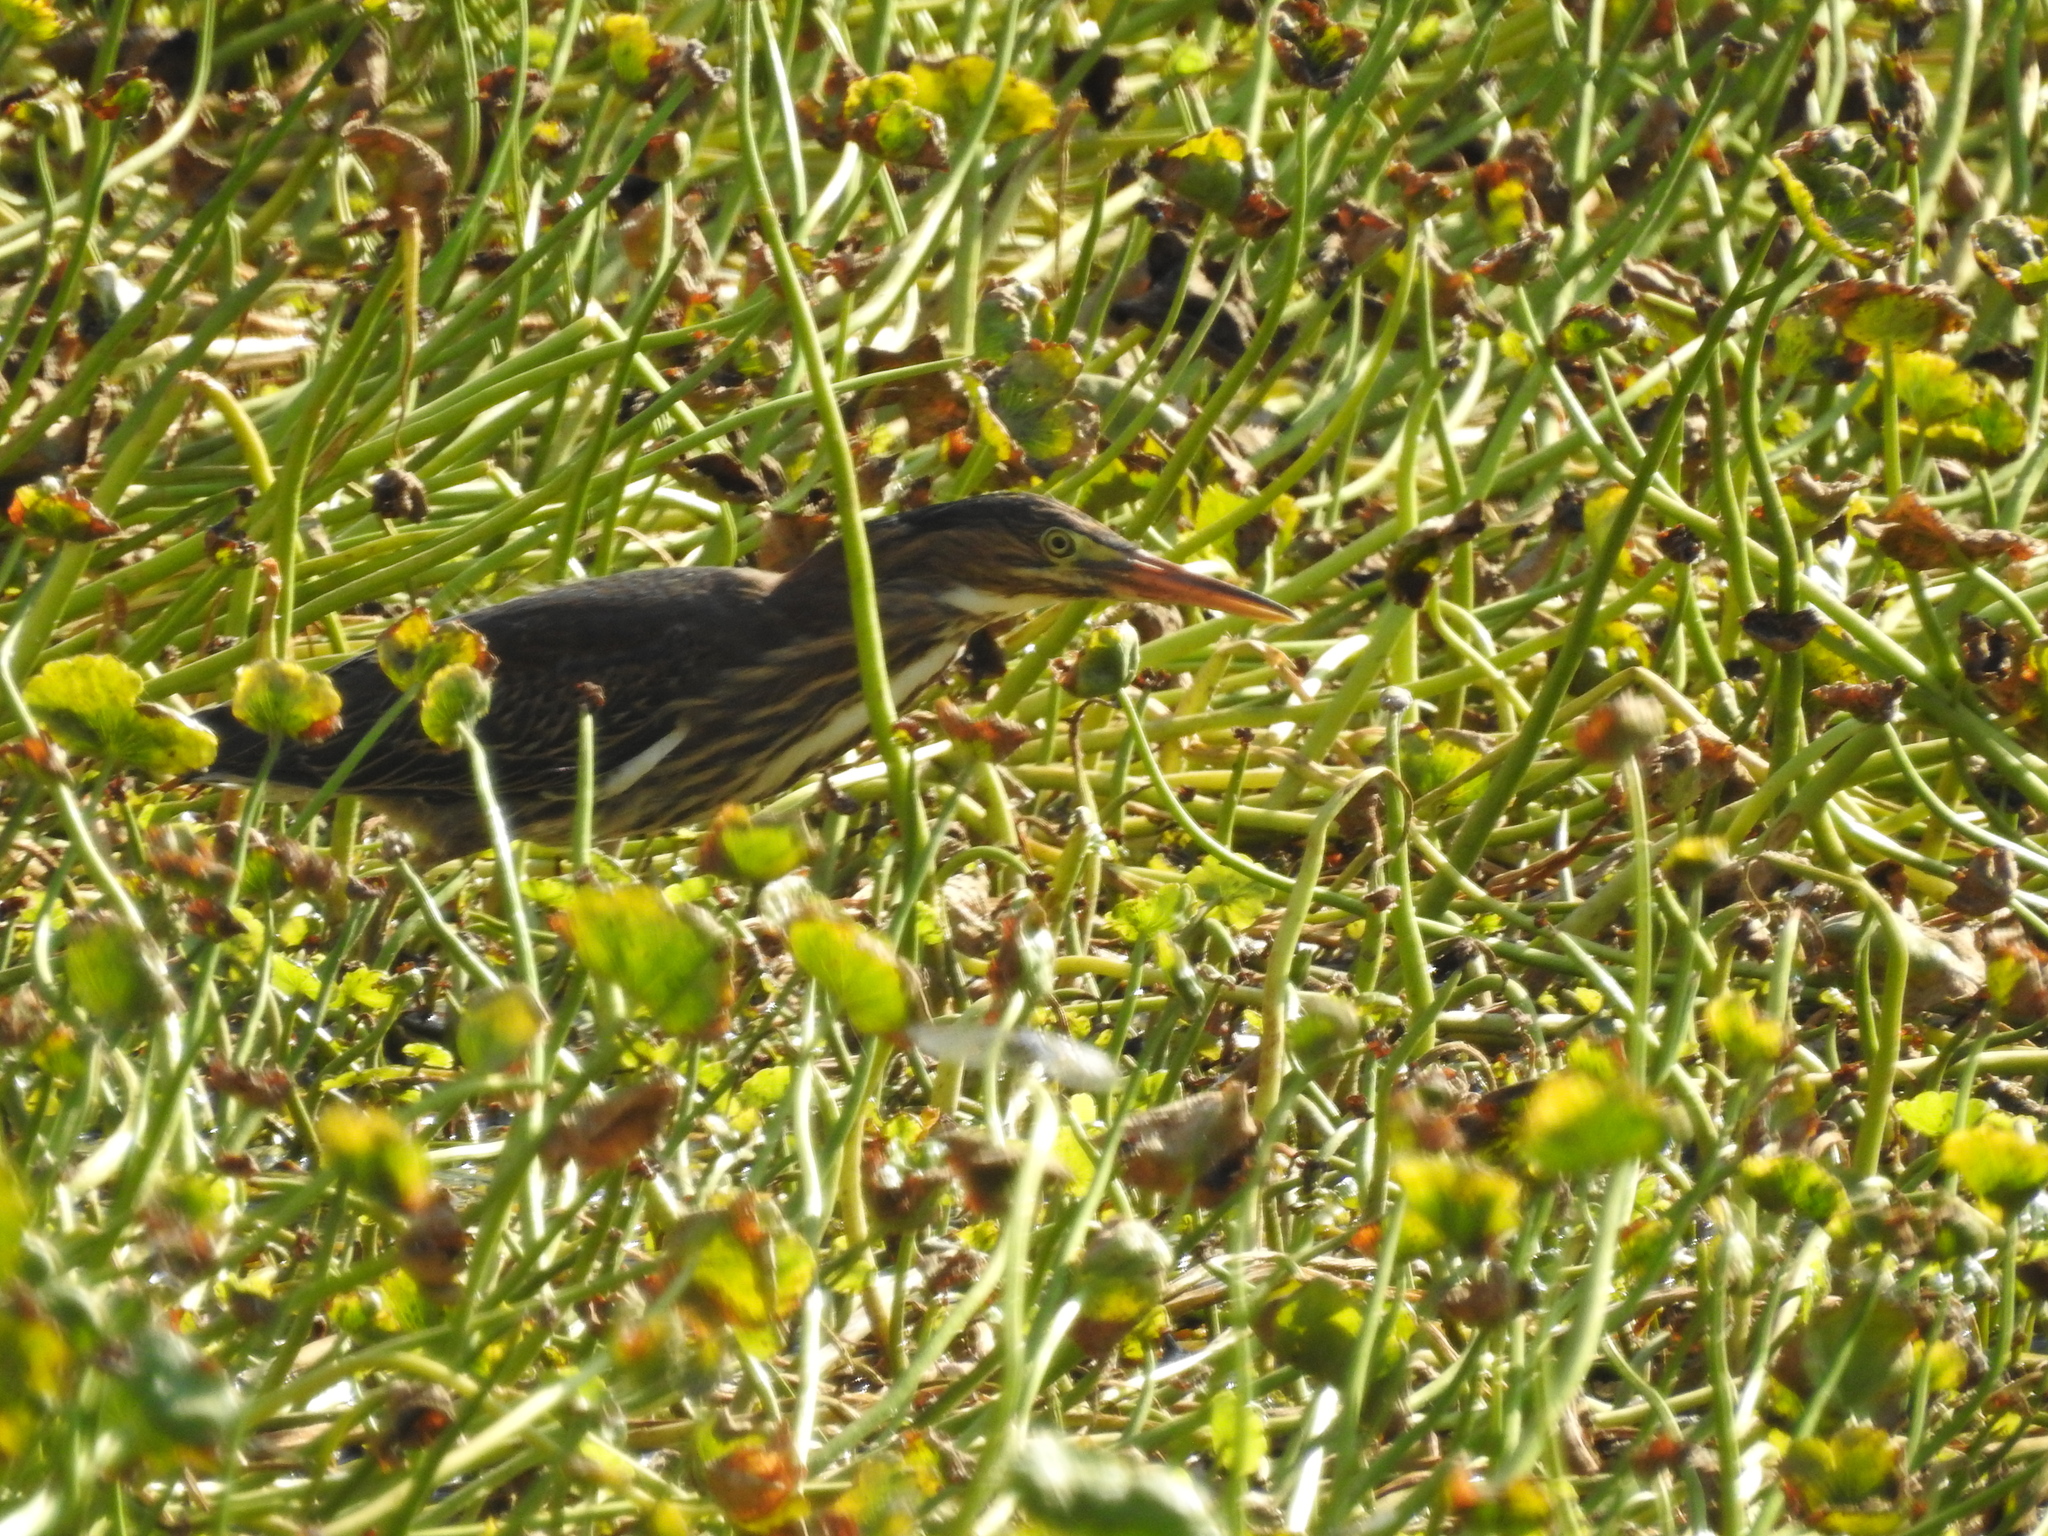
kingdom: Animalia
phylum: Chordata
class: Aves
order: Pelecaniformes
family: Ardeidae
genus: Butorides
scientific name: Butorides virescens
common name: Green heron
